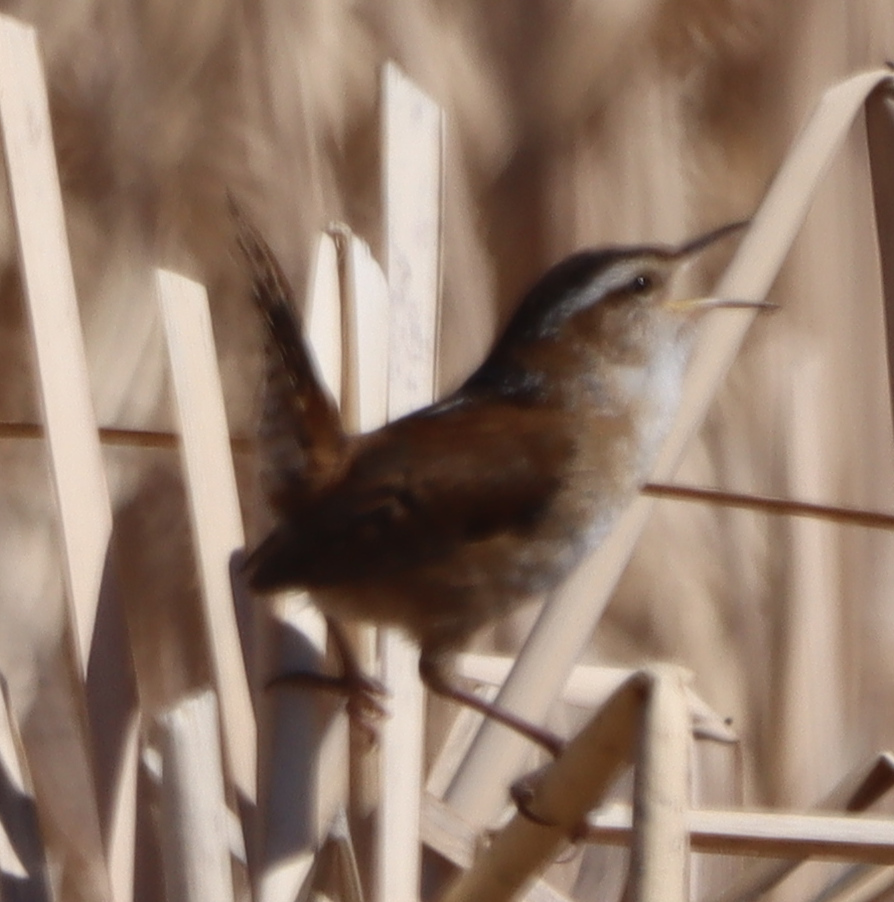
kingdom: Animalia
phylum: Chordata
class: Aves
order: Passeriformes
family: Troglodytidae
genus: Cistothorus
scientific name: Cistothorus palustris
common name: Marsh wren
